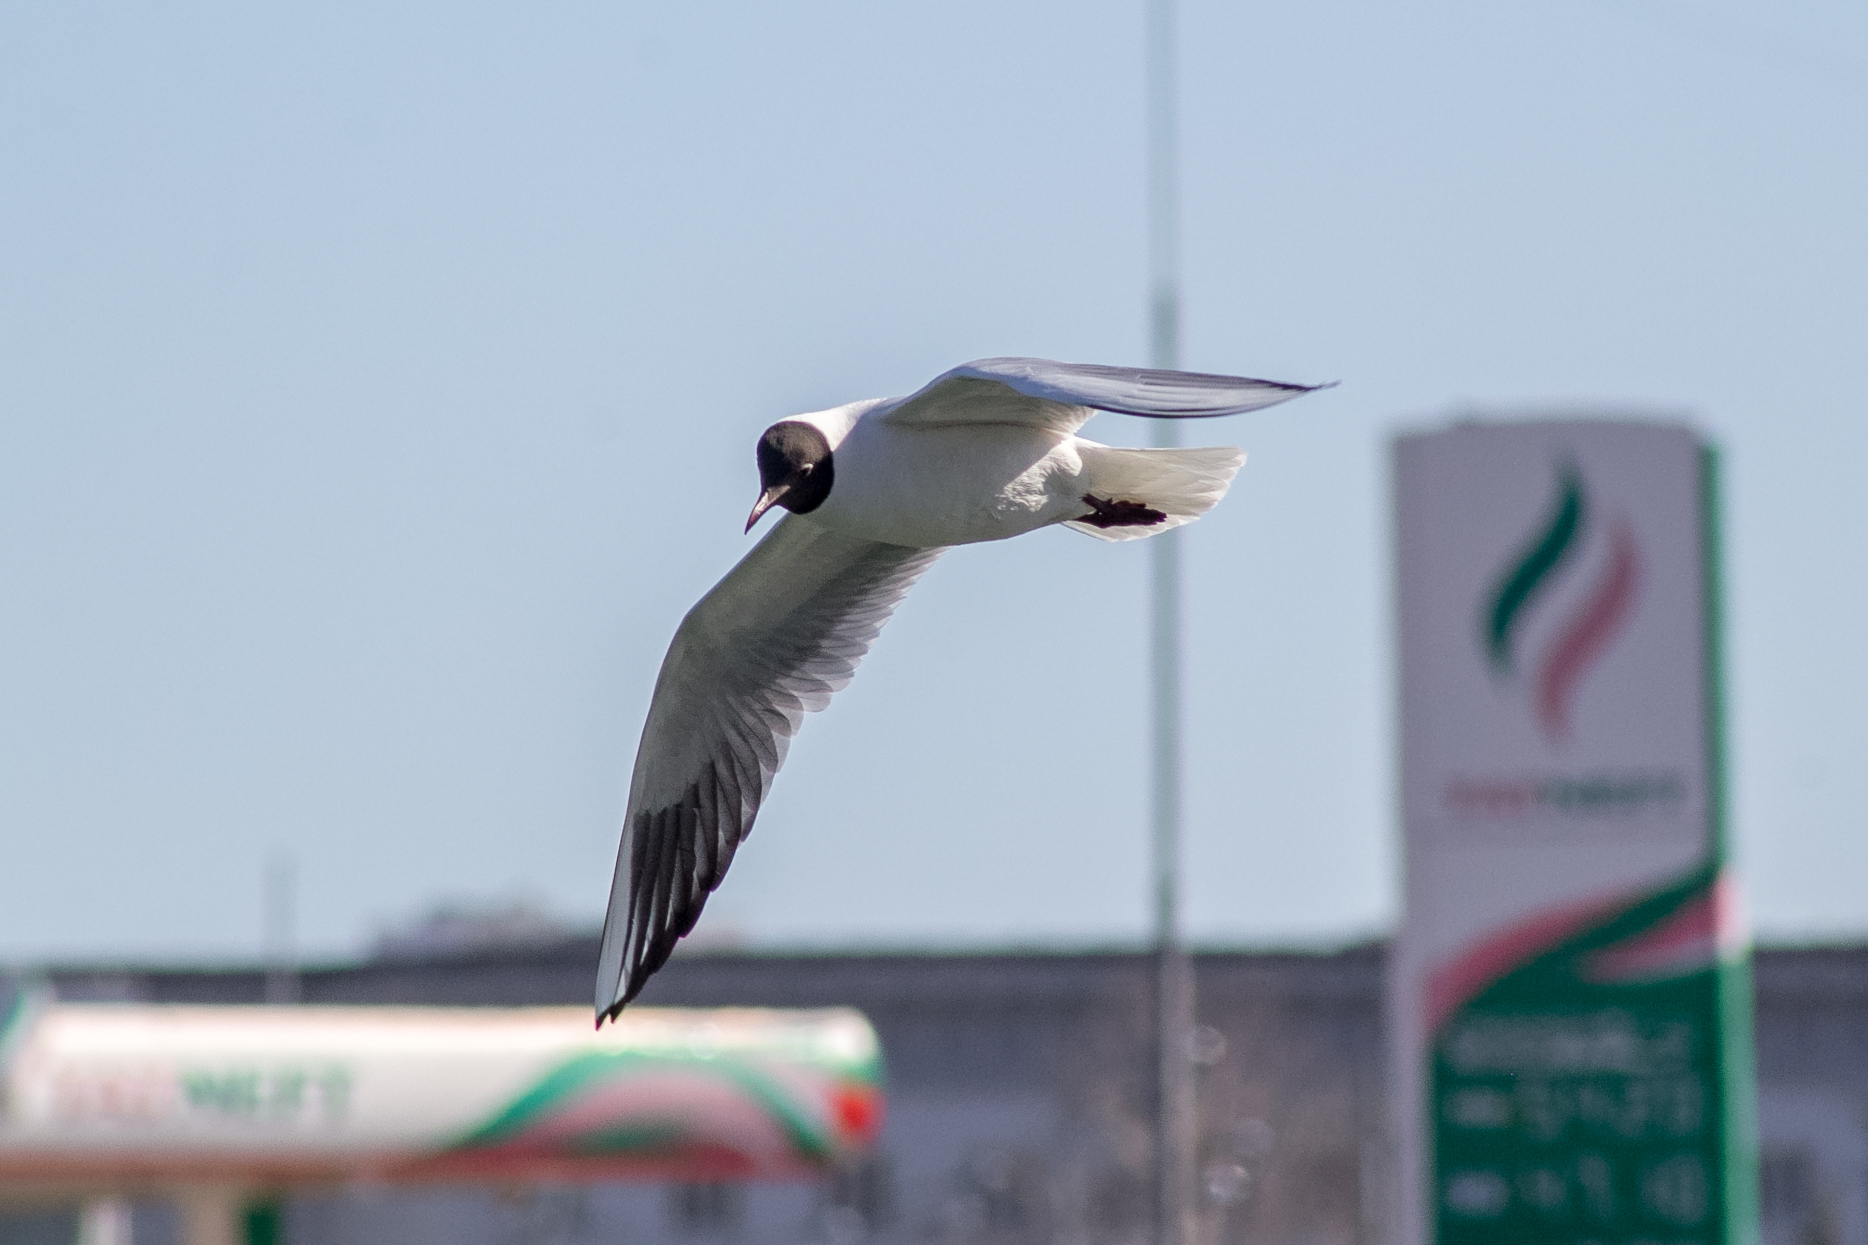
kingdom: Animalia
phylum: Chordata
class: Aves
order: Charadriiformes
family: Laridae
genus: Chroicocephalus
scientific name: Chroicocephalus ridibundus
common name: Black-headed gull
